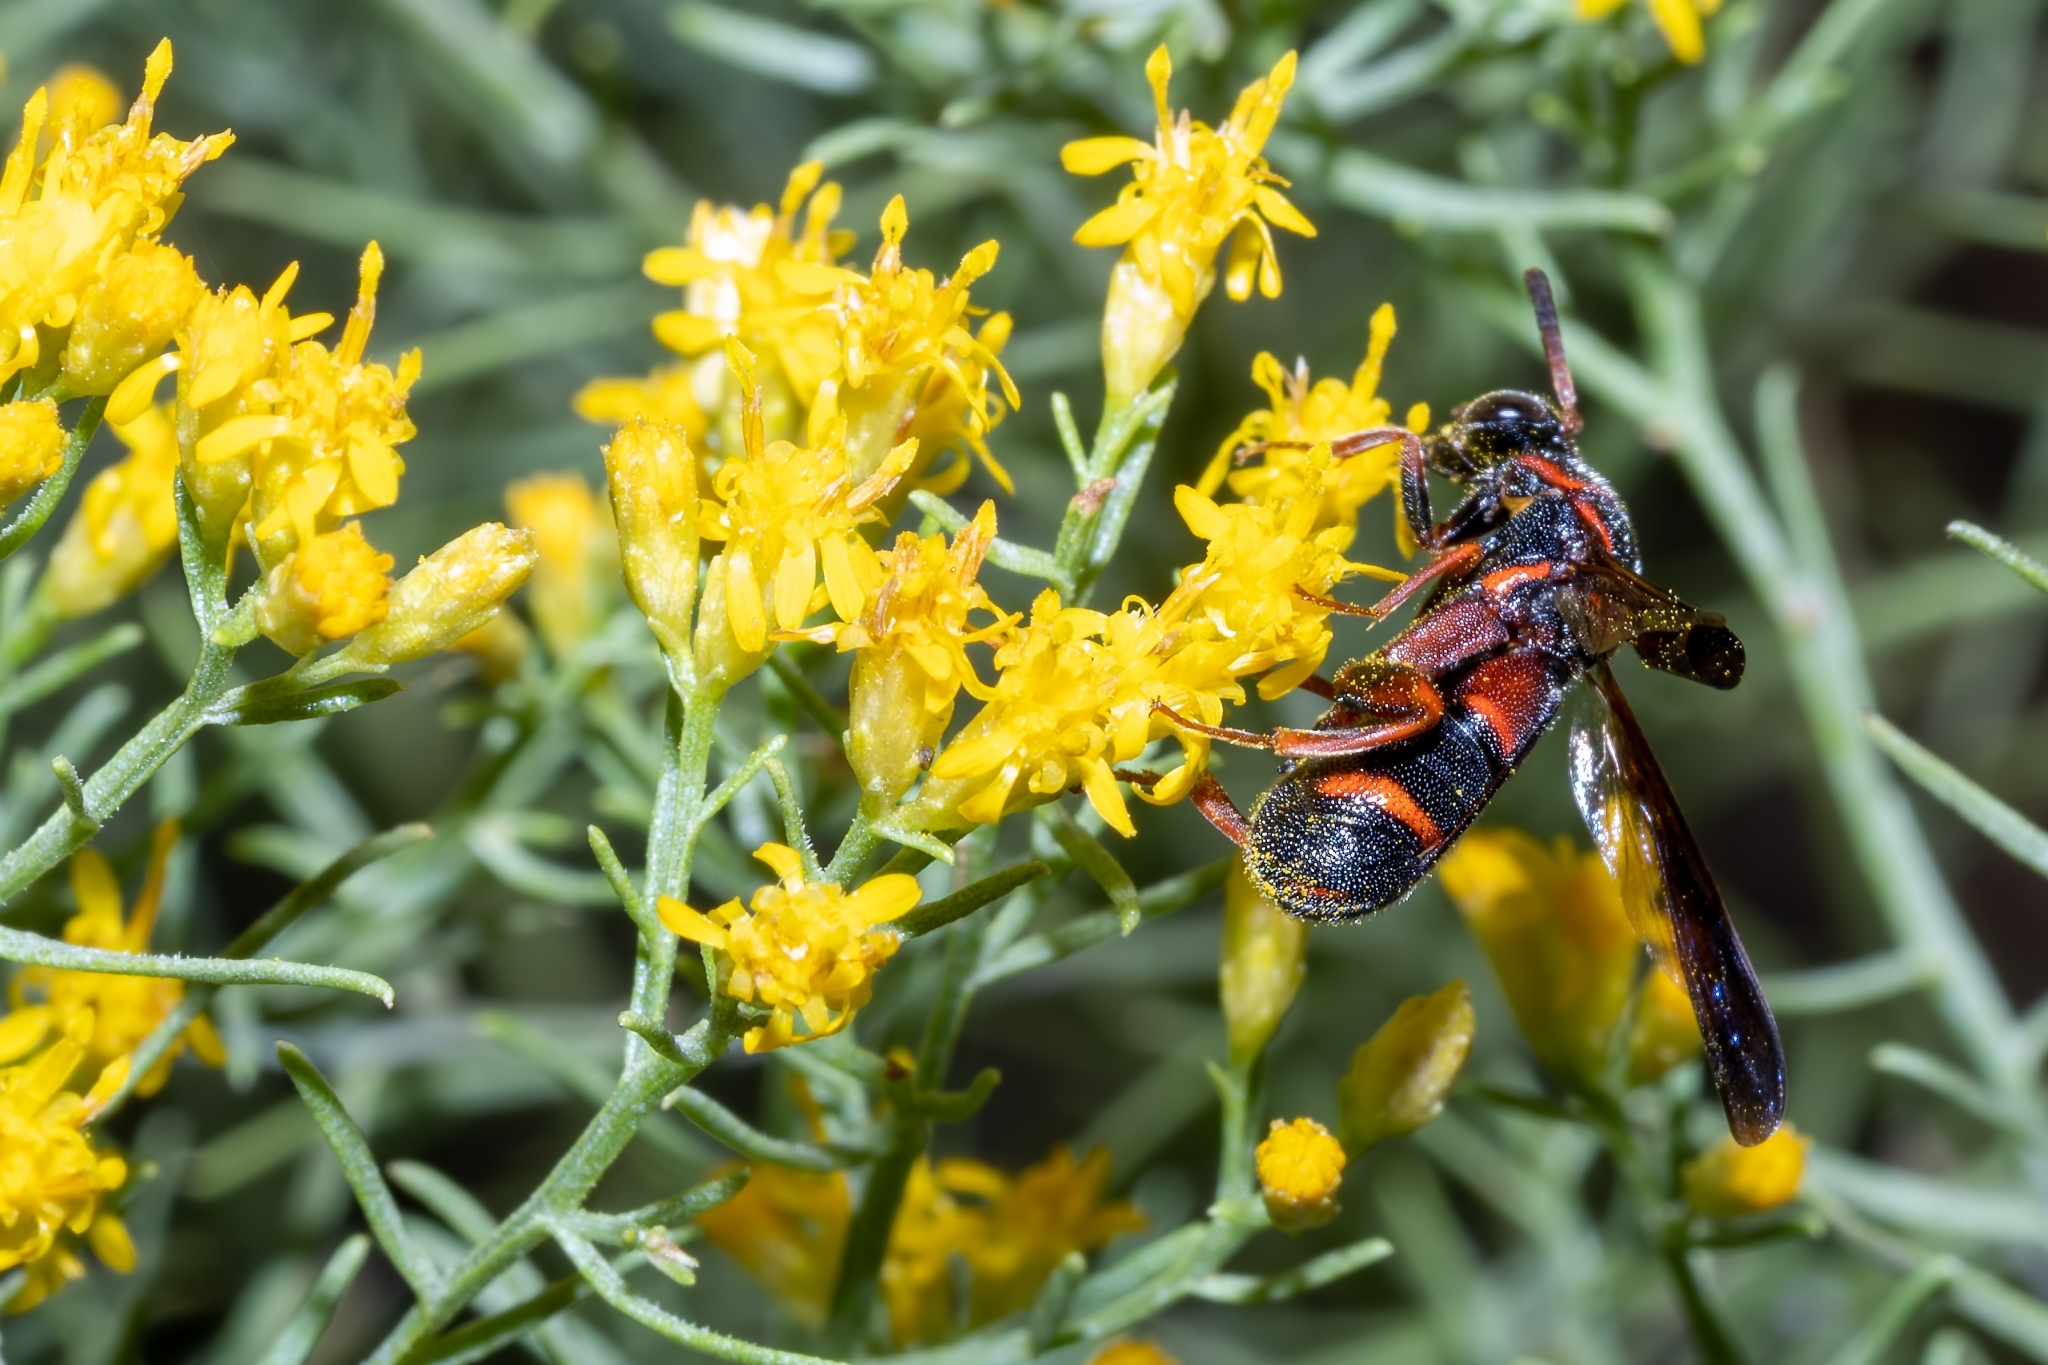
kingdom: Animalia
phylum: Arthropoda
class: Insecta
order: Hymenoptera
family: Leucospidae
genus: Leucospis
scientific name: Leucospis affinis
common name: Wasp
